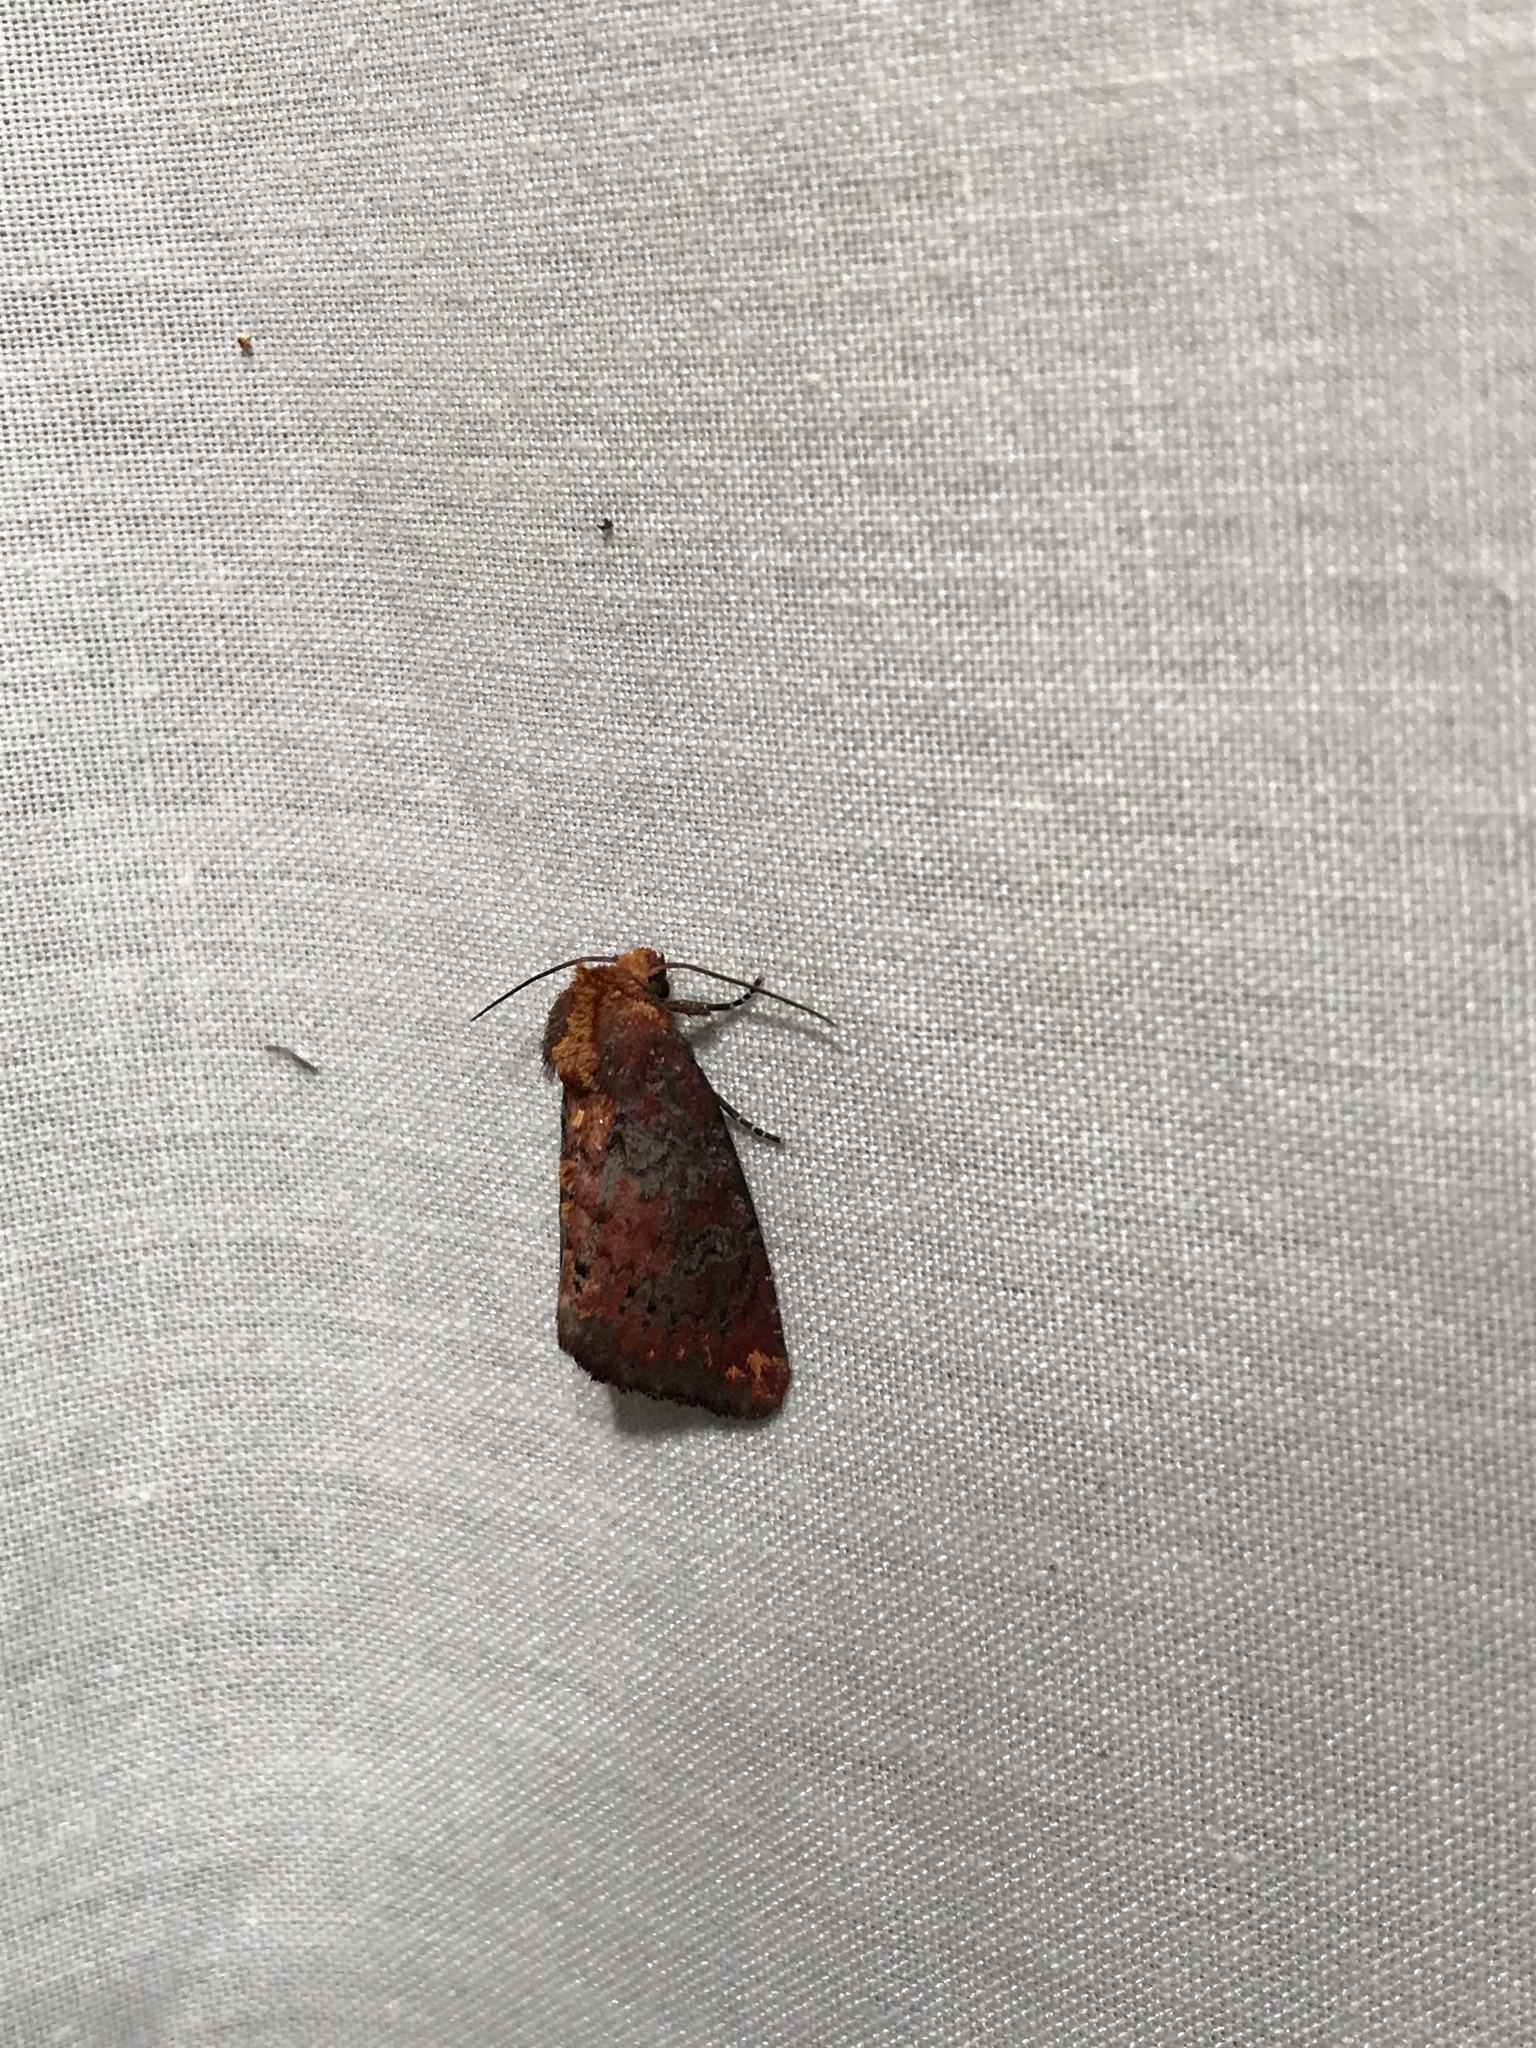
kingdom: Animalia
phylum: Arthropoda
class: Insecta
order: Lepidoptera
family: Noctuidae
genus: Achatodes
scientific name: Achatodes zeae
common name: Elder shoot borer
